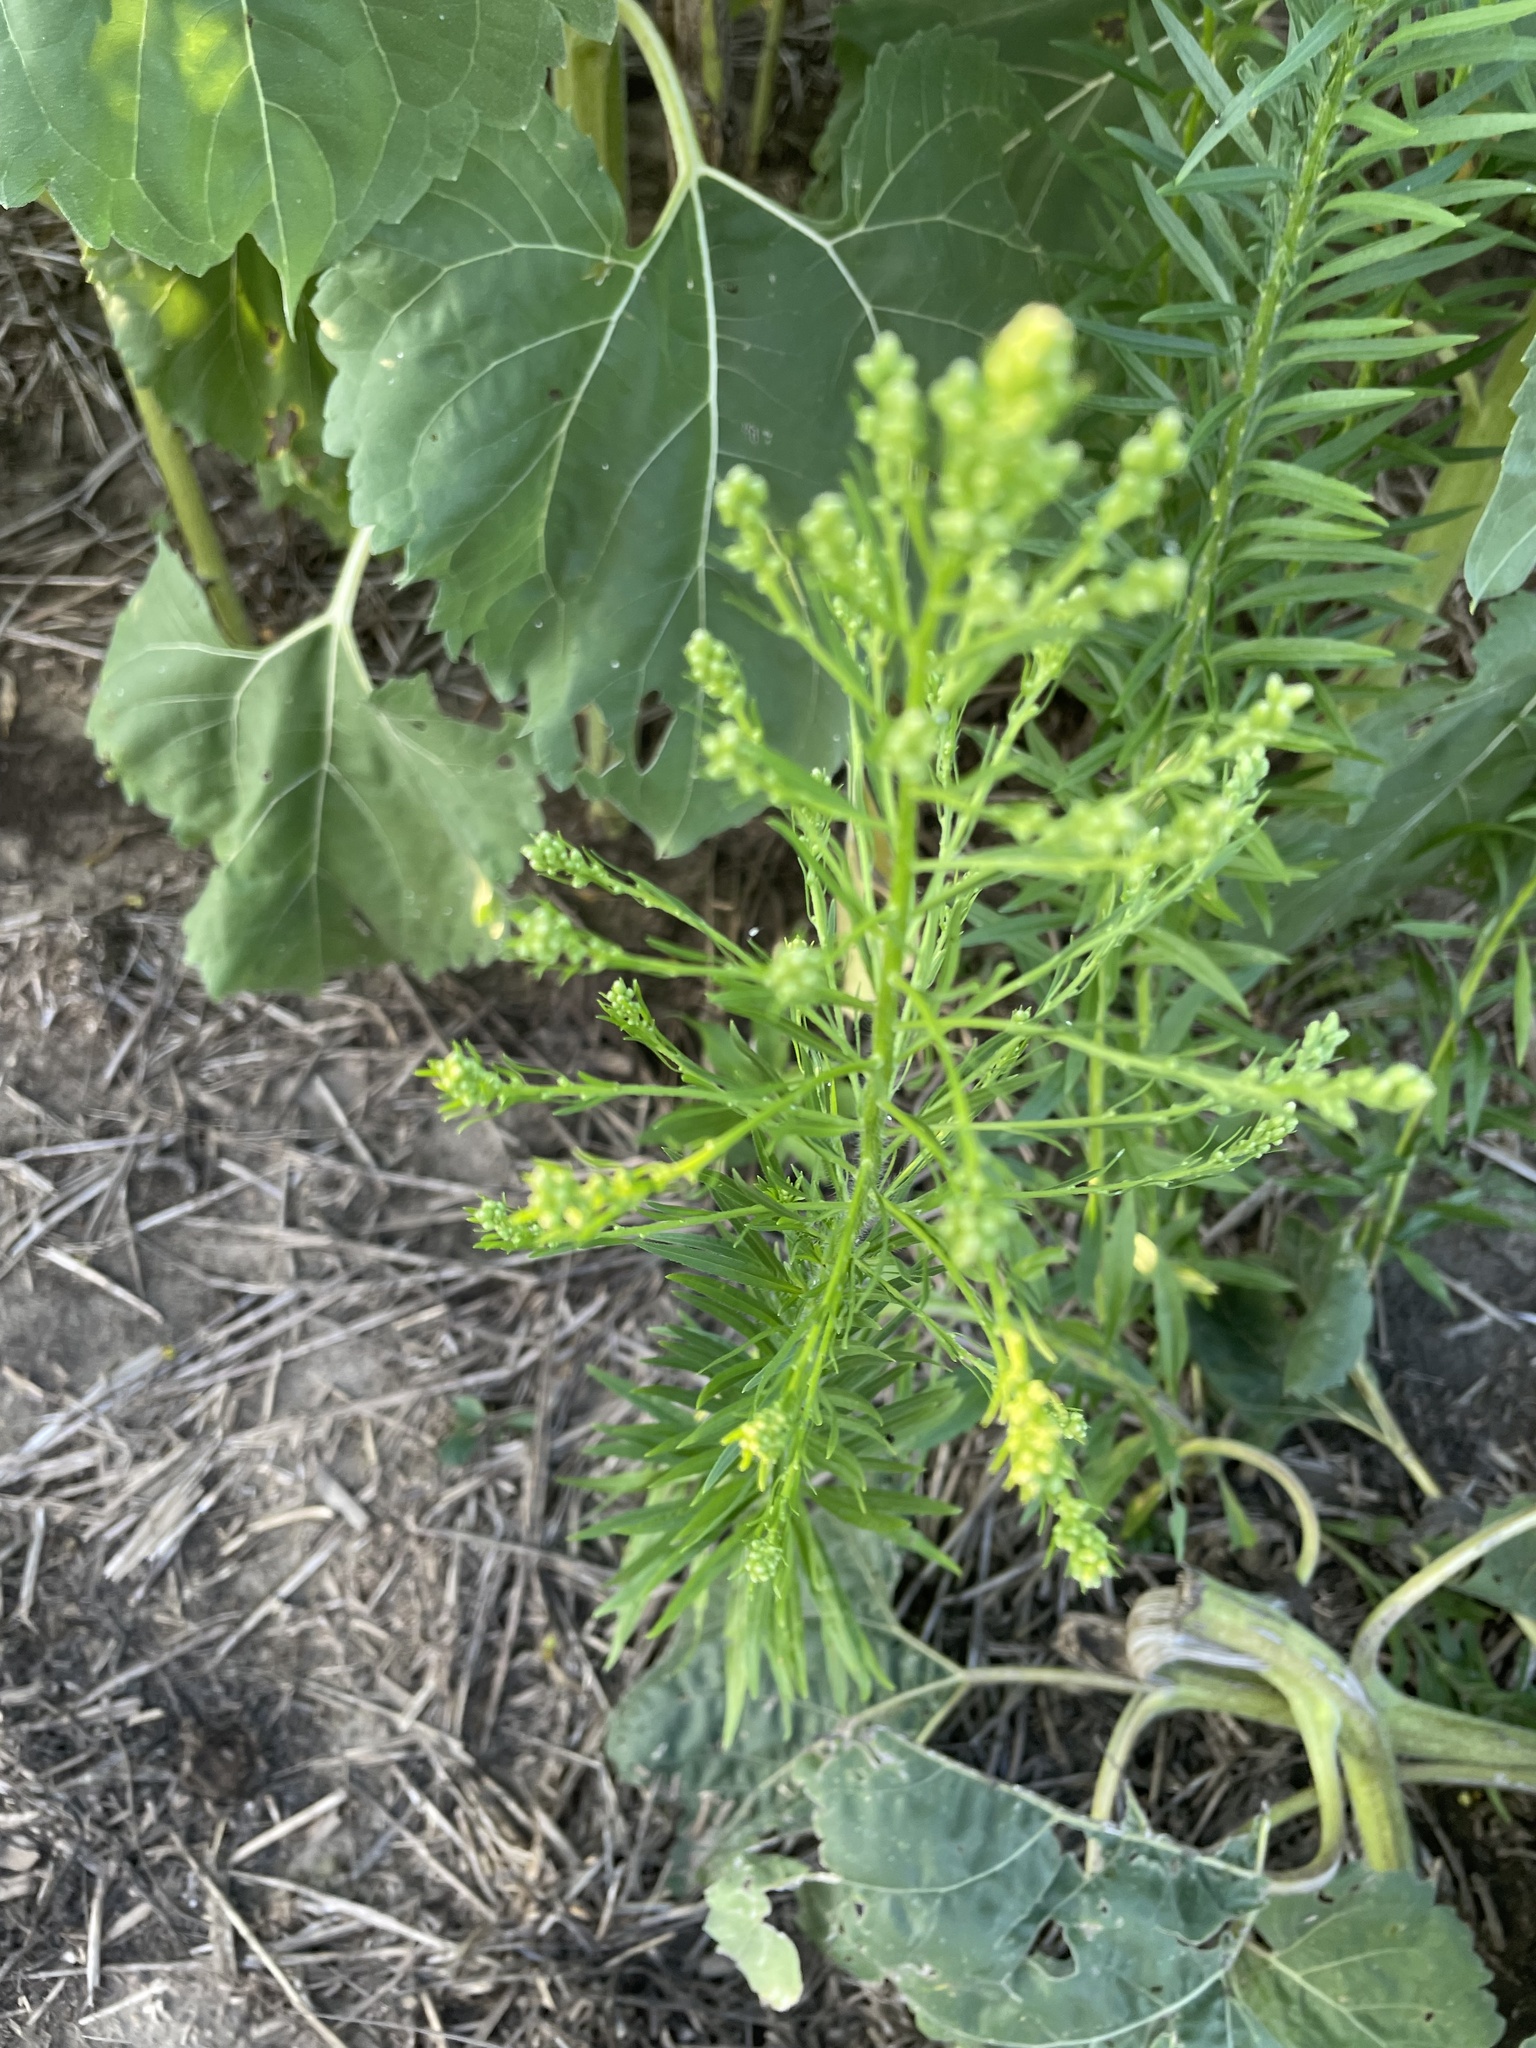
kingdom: Plantae
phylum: Tracheophyta
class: Magnoliopsida
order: Asterales
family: Asteraceae
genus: Erigeron
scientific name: Erigeron canadensis
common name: Canadian fleabane
